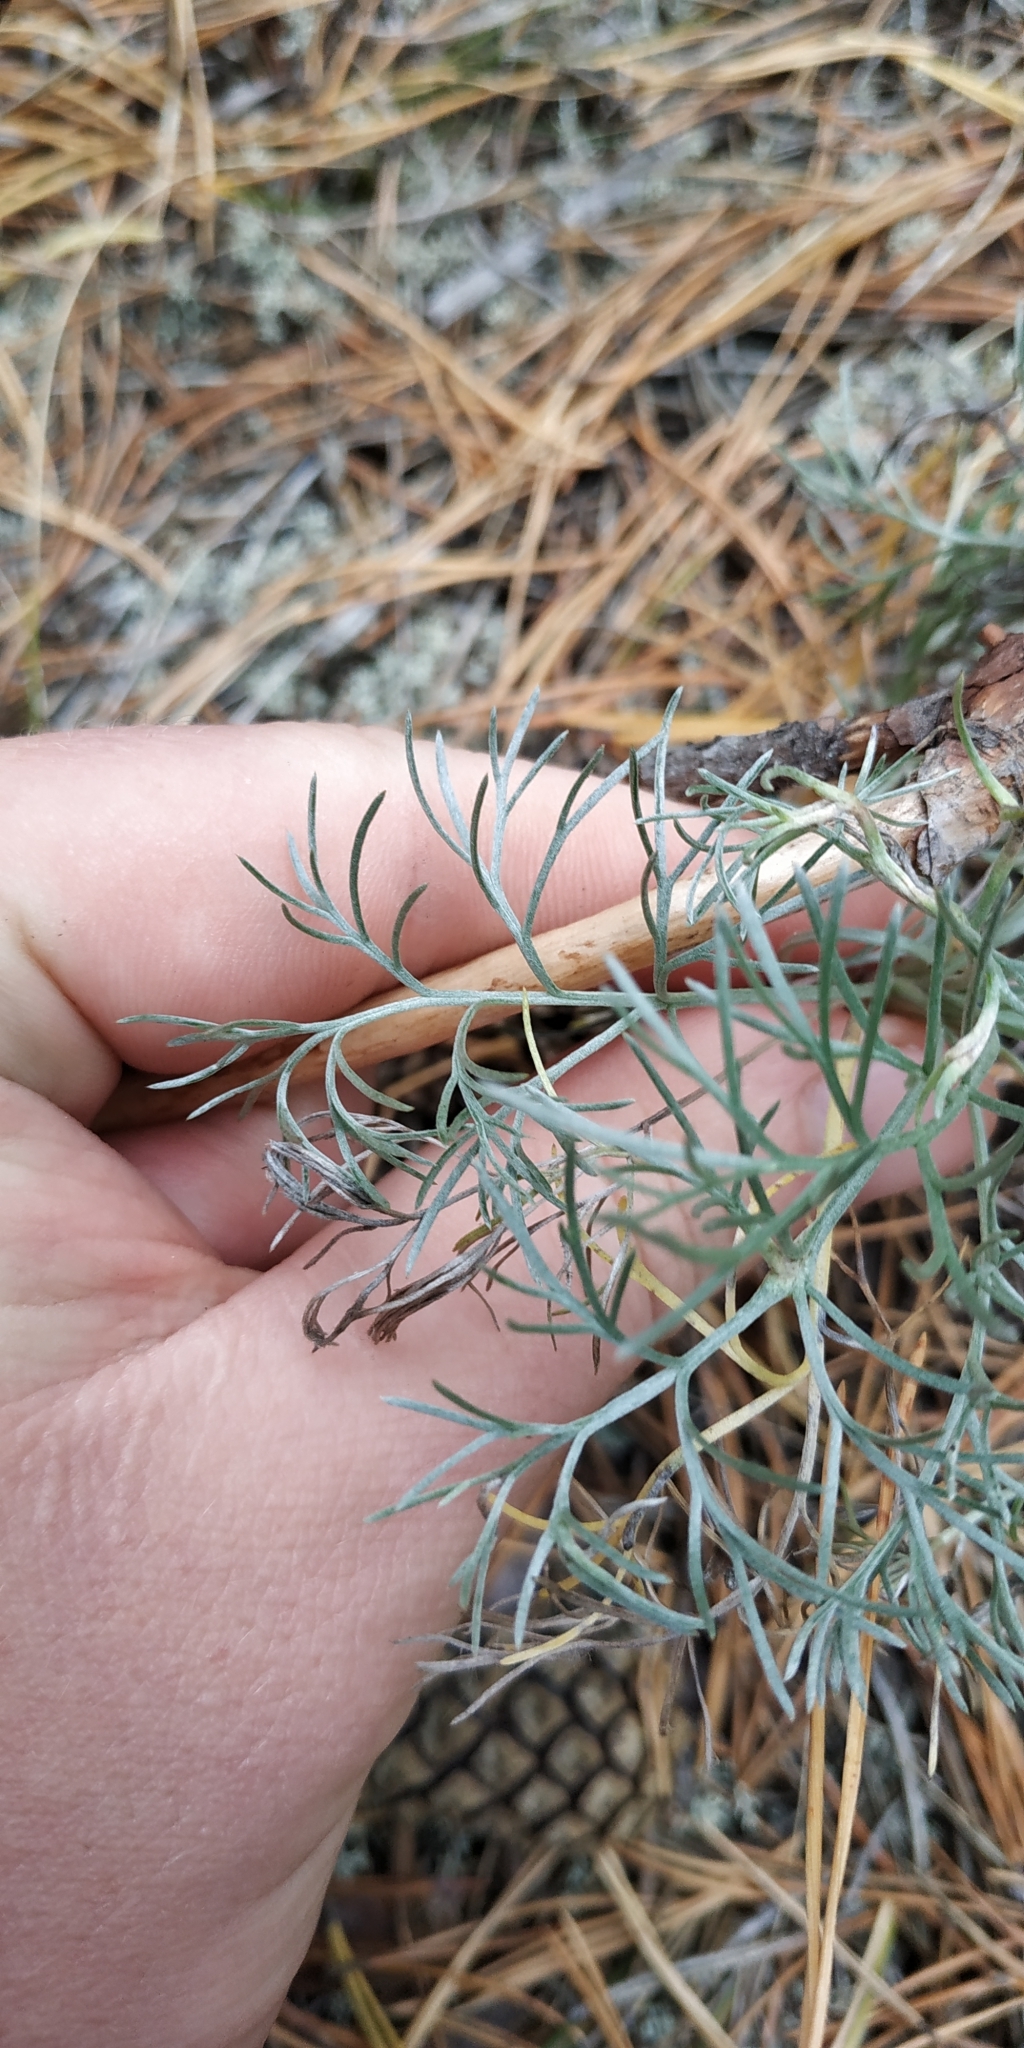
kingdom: Plantae
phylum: Tracheophyta
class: Magnoliopsida
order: Asterales
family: Asteraceae
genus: Artemisia
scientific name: Artemisia marschalliana
